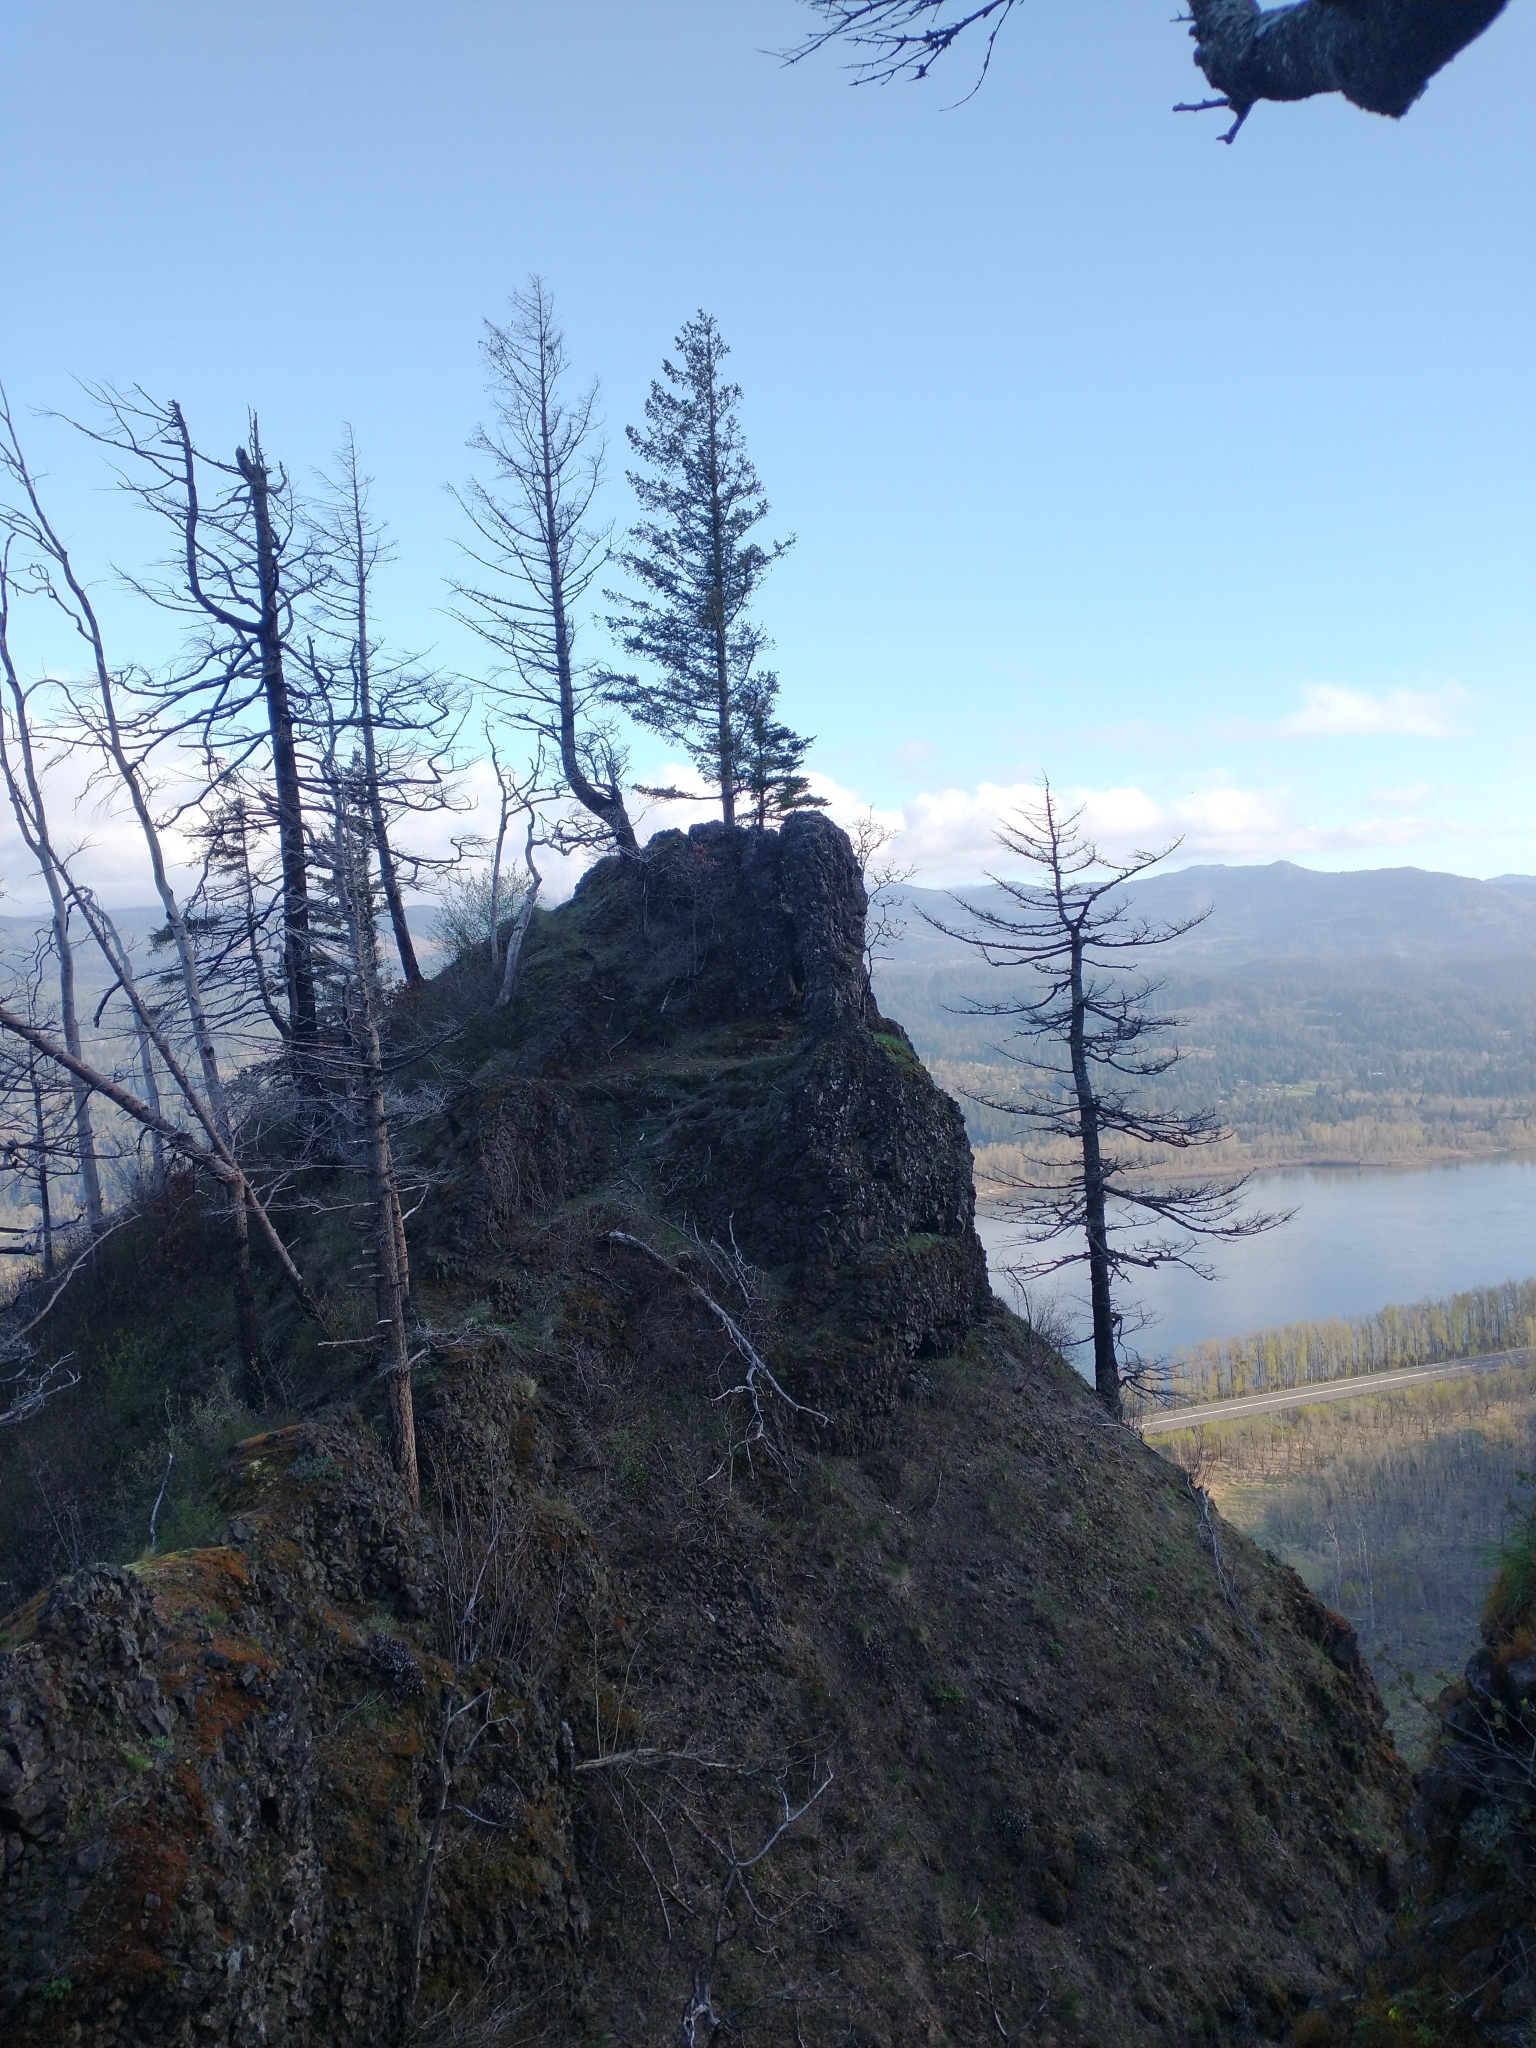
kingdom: Plantae
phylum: Tracheophyta
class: Pinopsida
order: Pinales
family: Pinaceae
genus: Pseudotsuga
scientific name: Pseudotsuga menziesii
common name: Douglas fir
